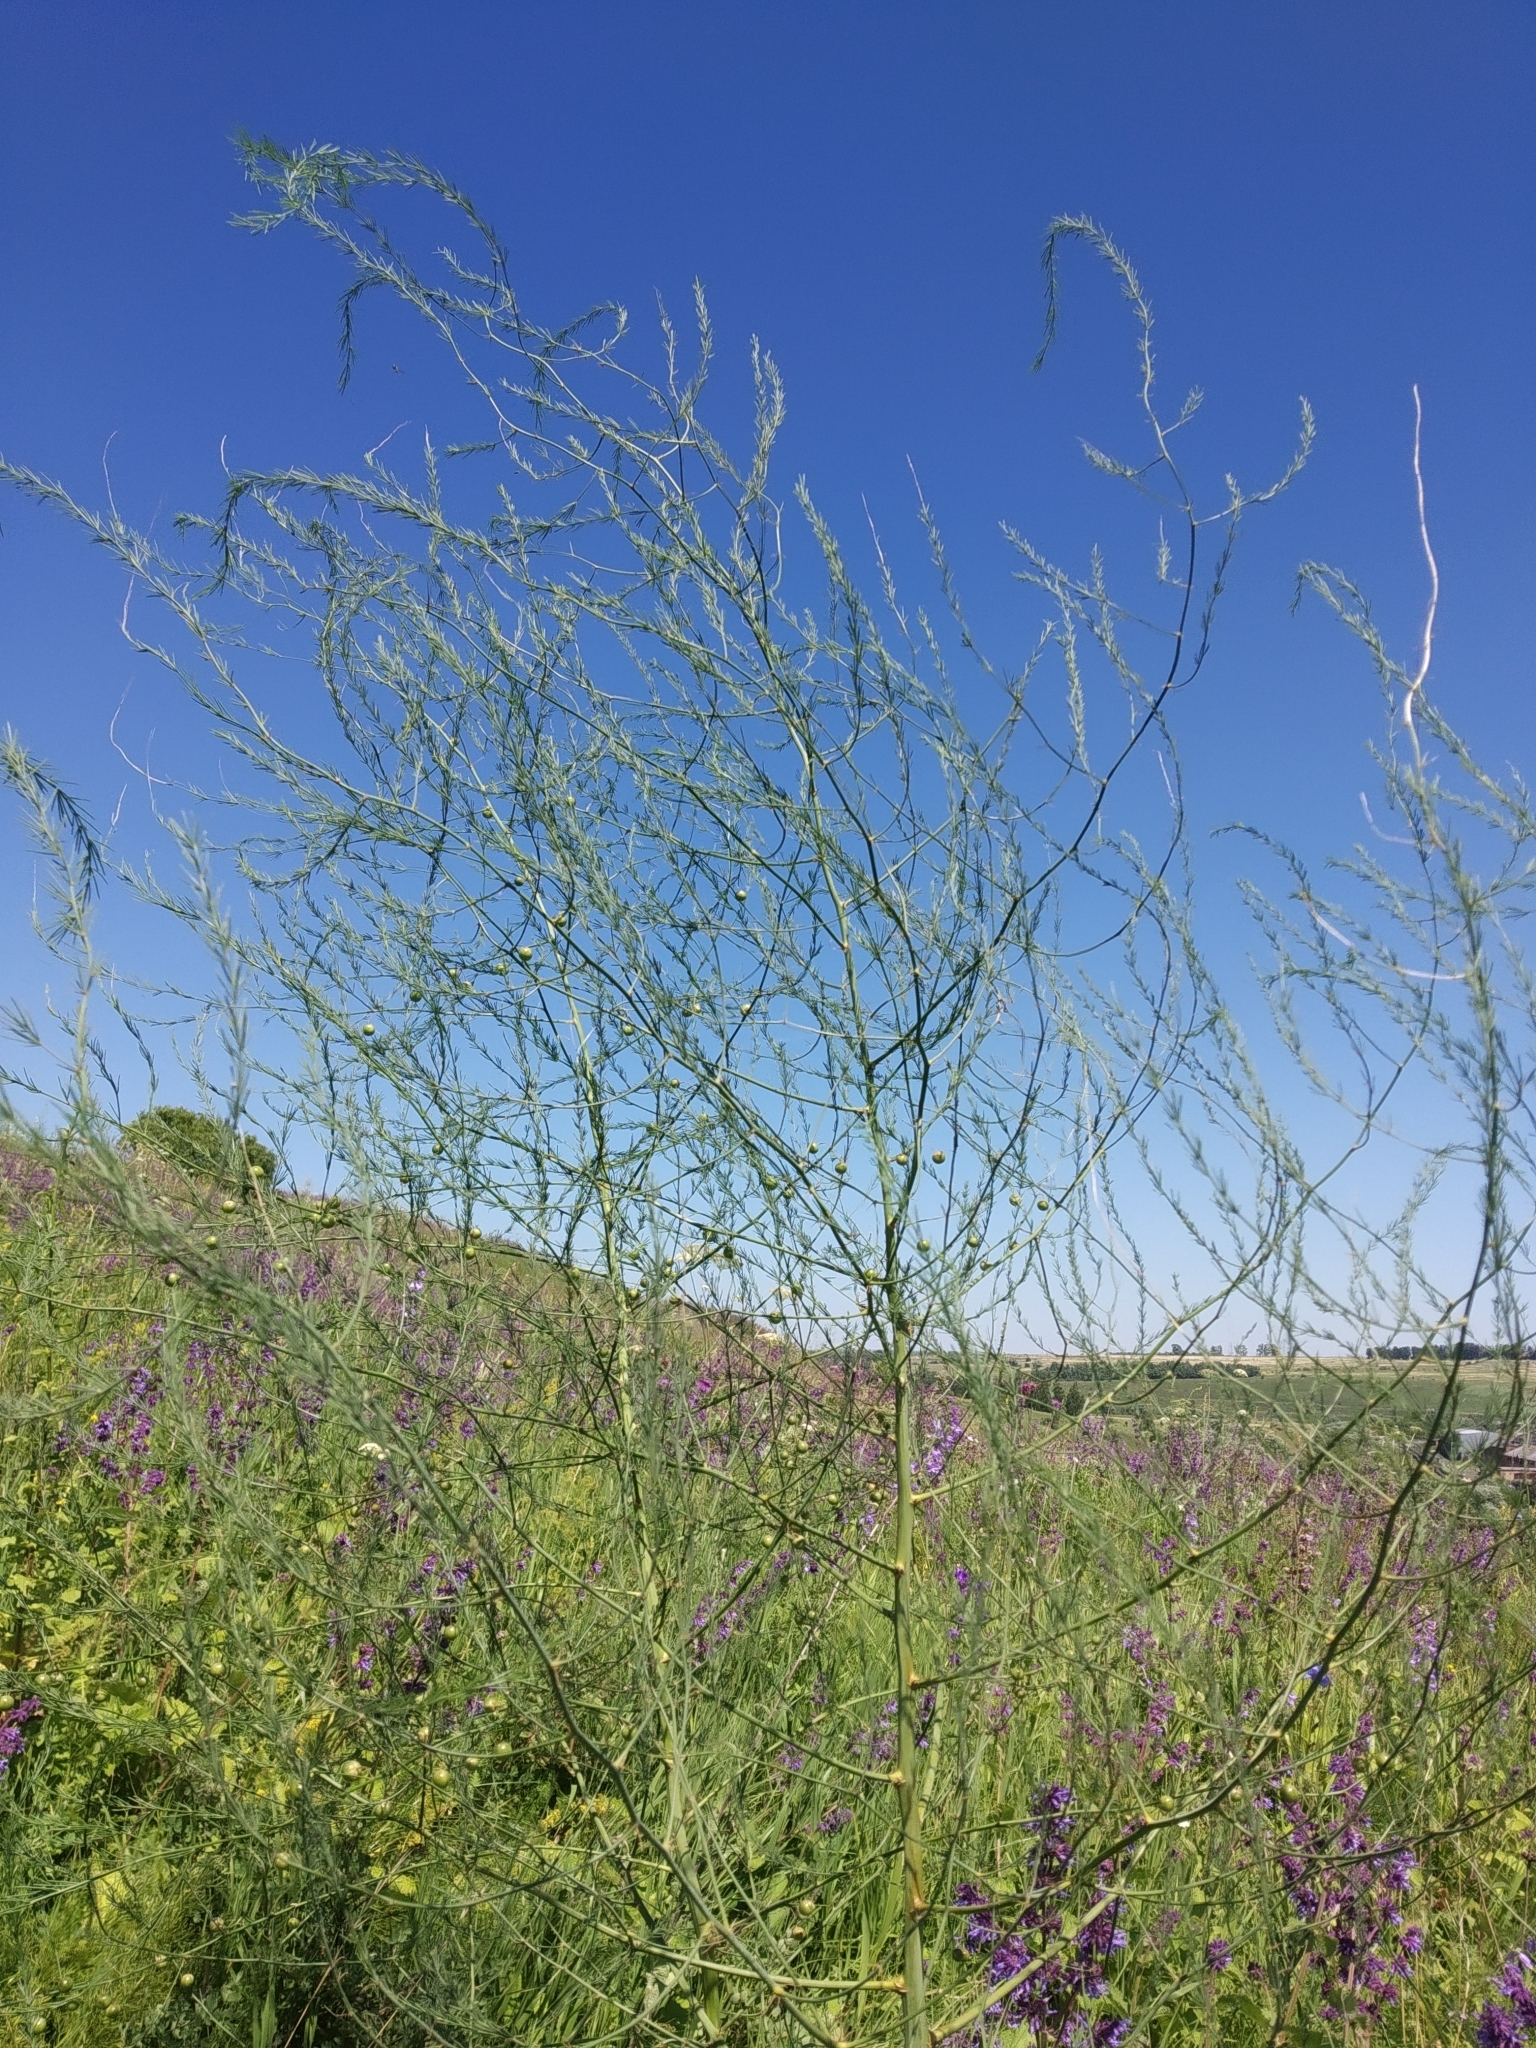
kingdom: Plantae
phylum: Tracheophyta
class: Liliopsida
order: Asparagales
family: Asparagaceae
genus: Asparagus
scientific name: Asparagus officinalis
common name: Garden asparagus
